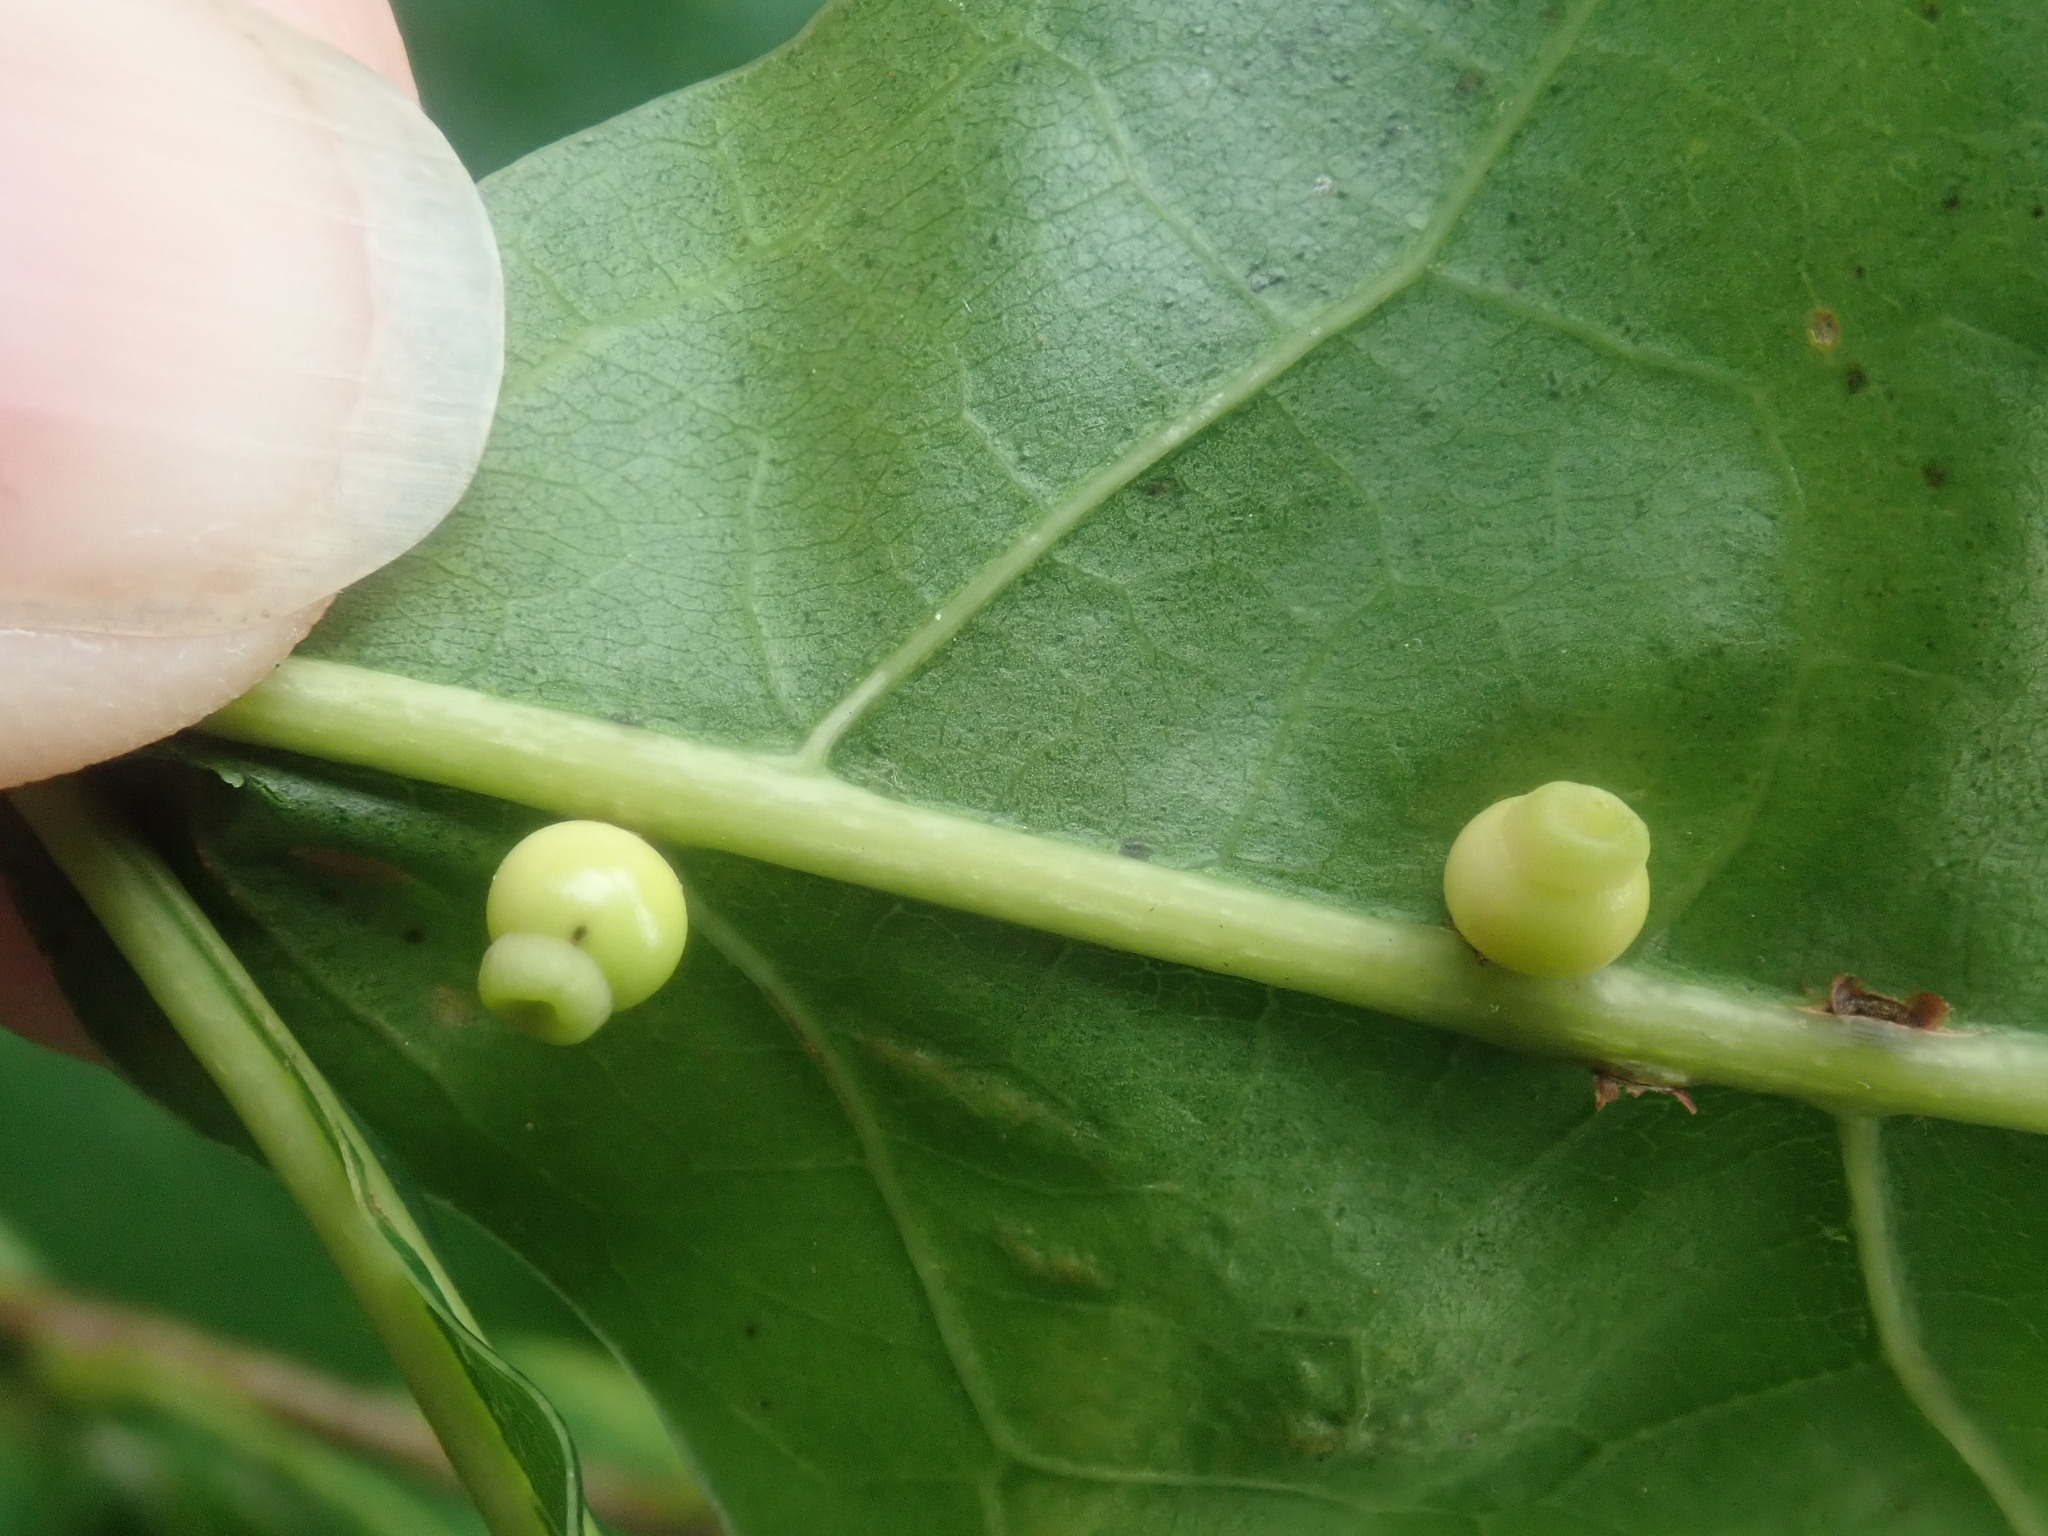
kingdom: Animalia
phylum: Arthropoda
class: Insecta
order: Hymenoptera
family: Cynipidae
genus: Kokkocynips
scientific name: Kokkocynips rileyi
